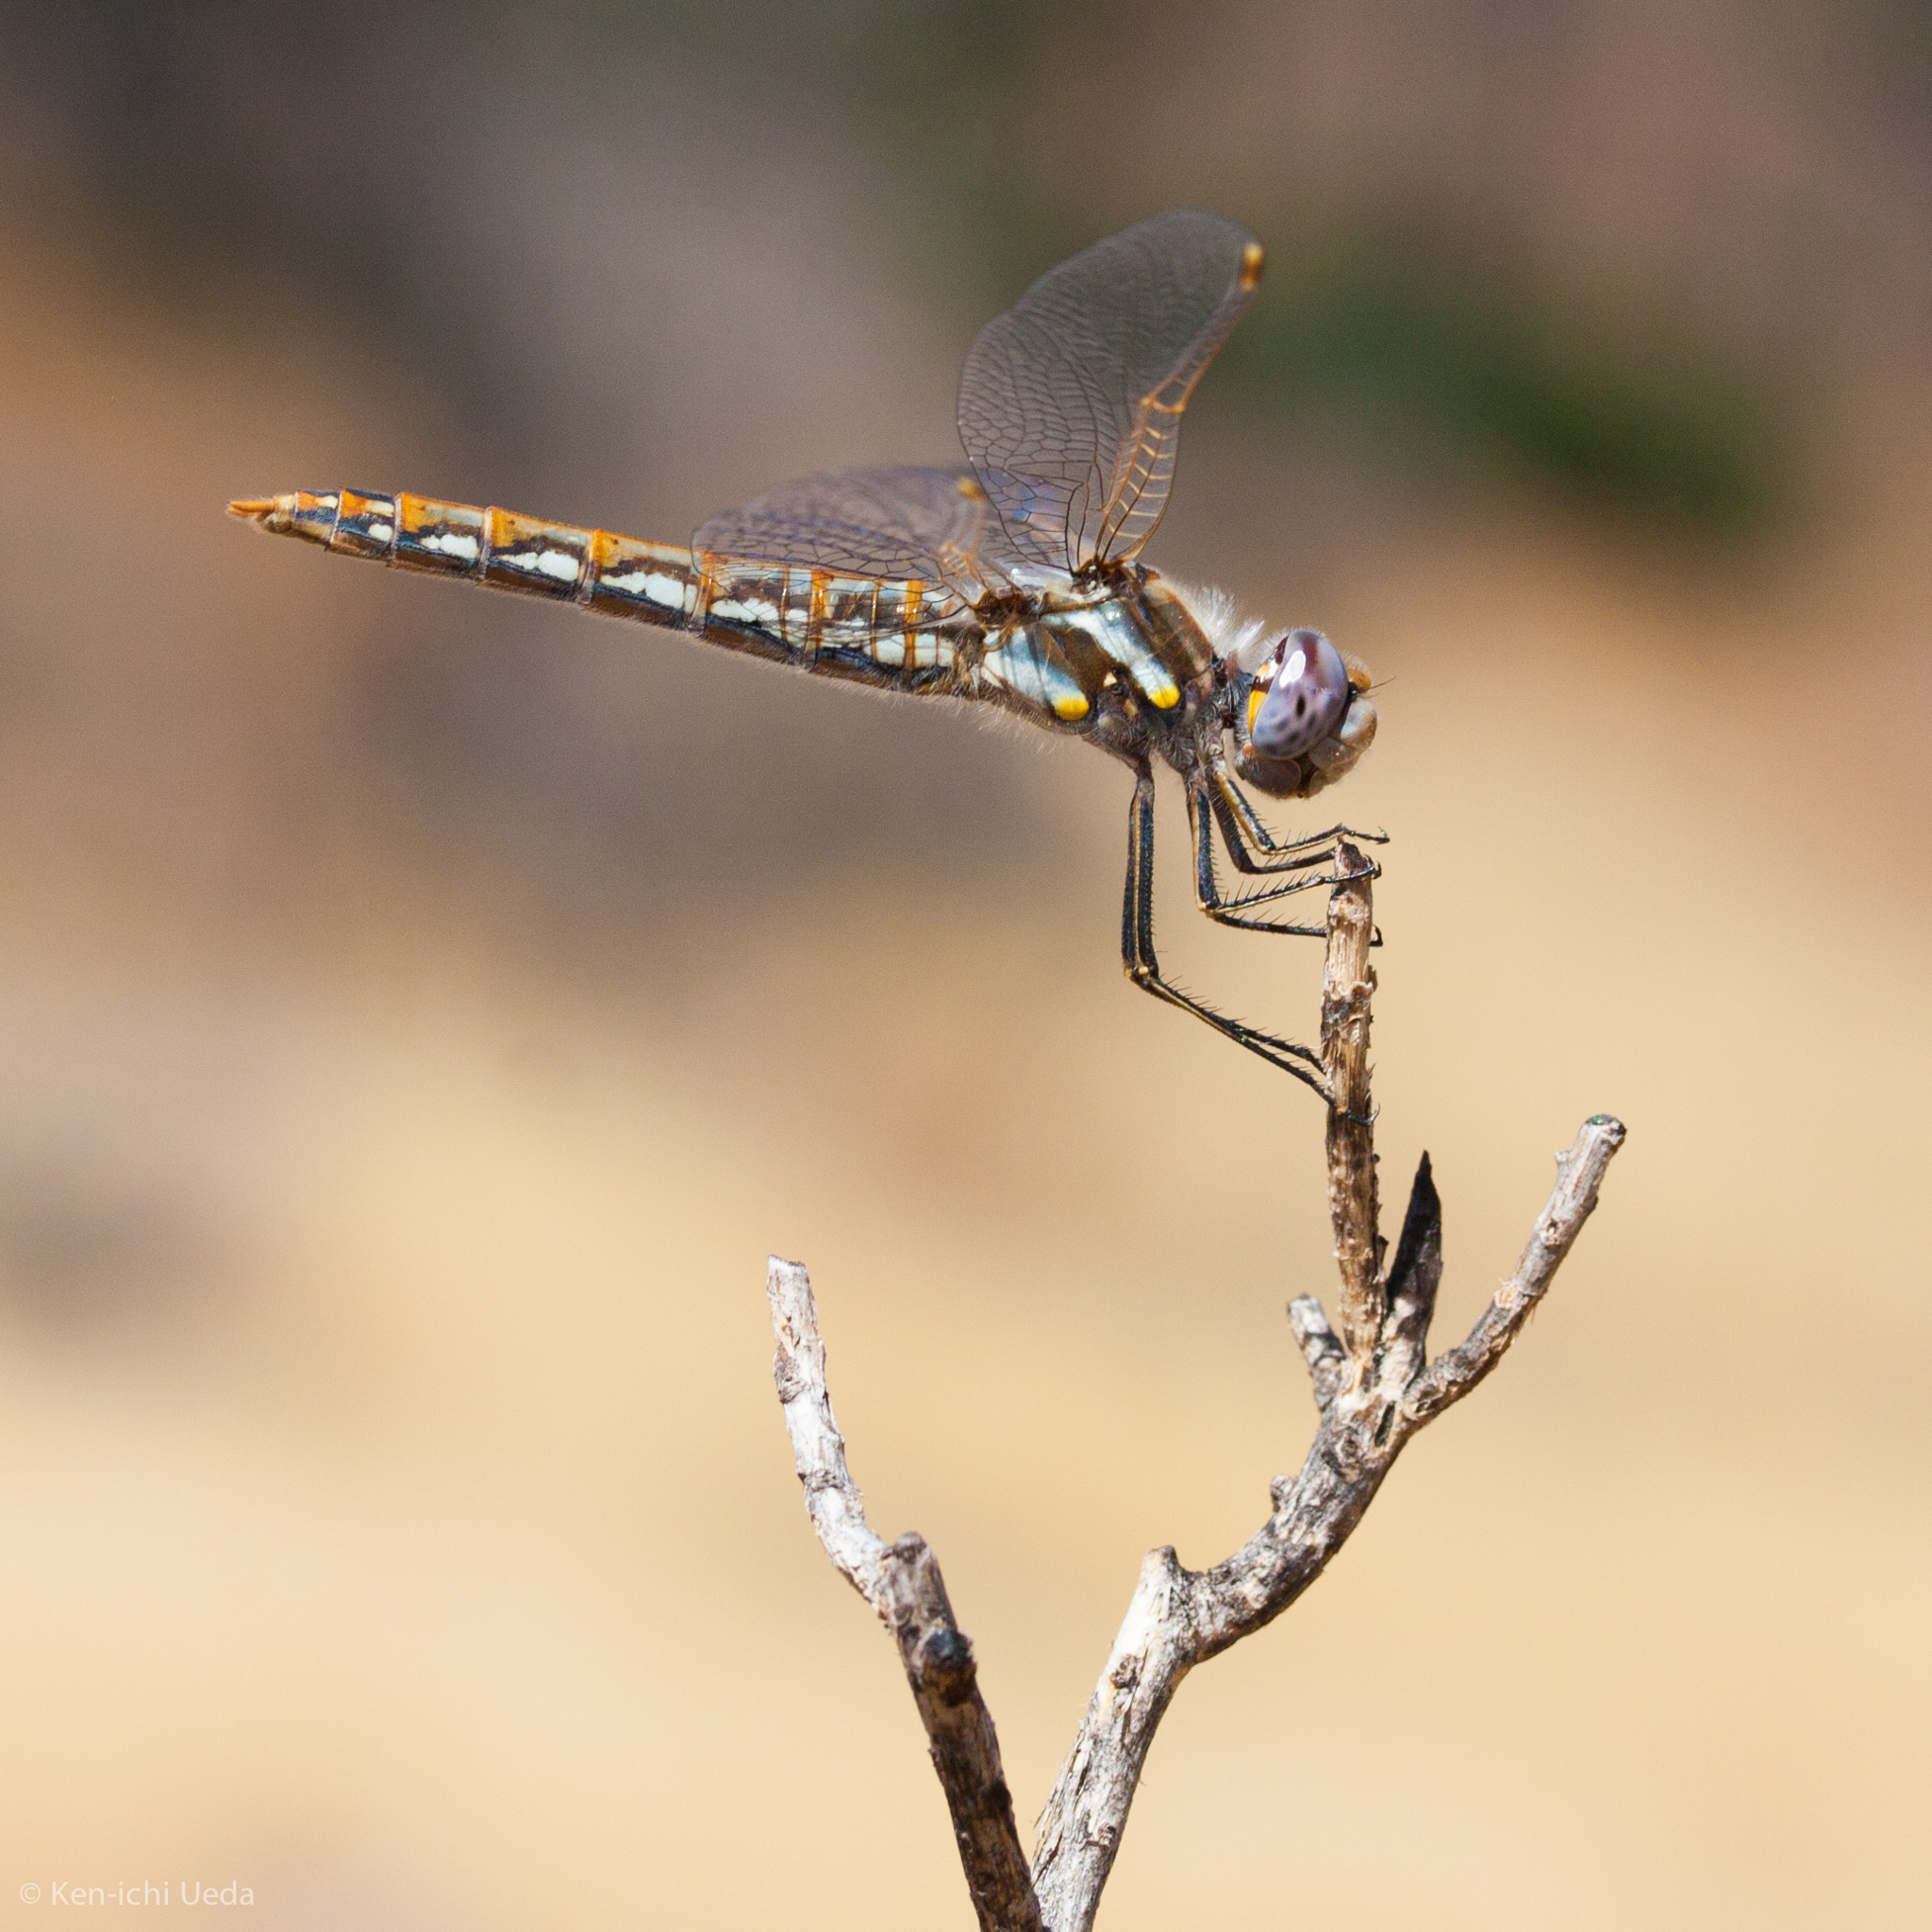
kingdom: Animalia
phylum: Arthropoda
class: Insecta
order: Odonata
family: Libellulidae
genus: Sympetrum
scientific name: Sympetrum corruptum
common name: Variegated meadowhawk
